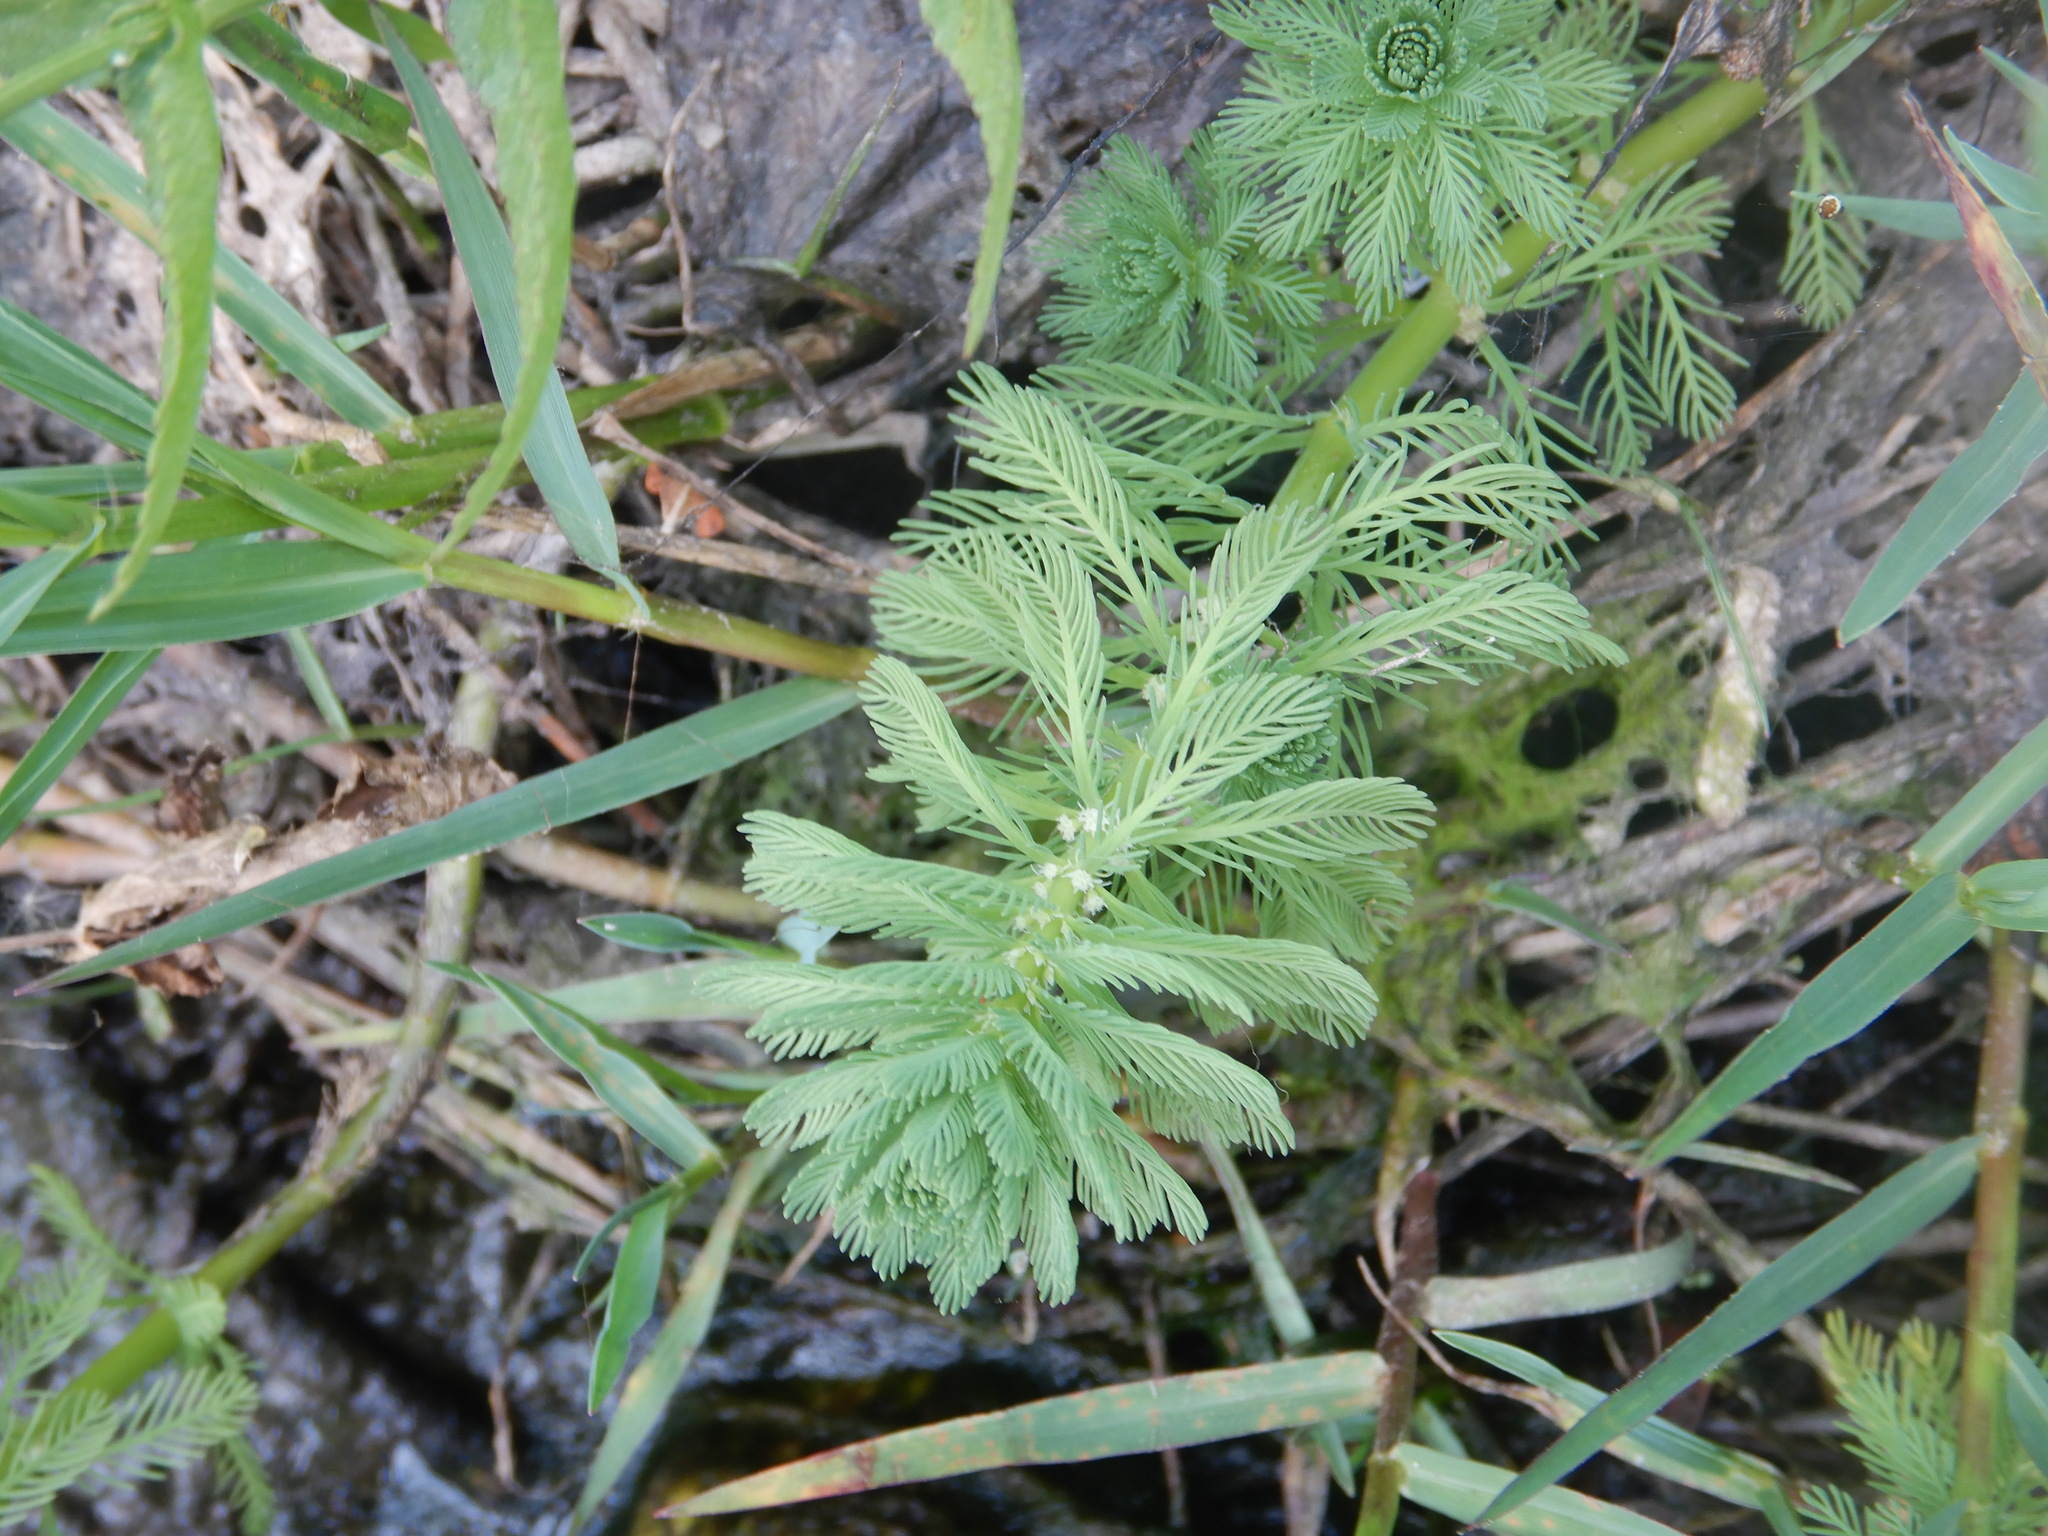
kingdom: Plantae
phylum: Tracheophyta
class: Magnoliopsida
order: Saxifragales
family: Haloragaceae
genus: Myriophyllum
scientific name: Myriophyllum aquaticum
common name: Parrot's feather
